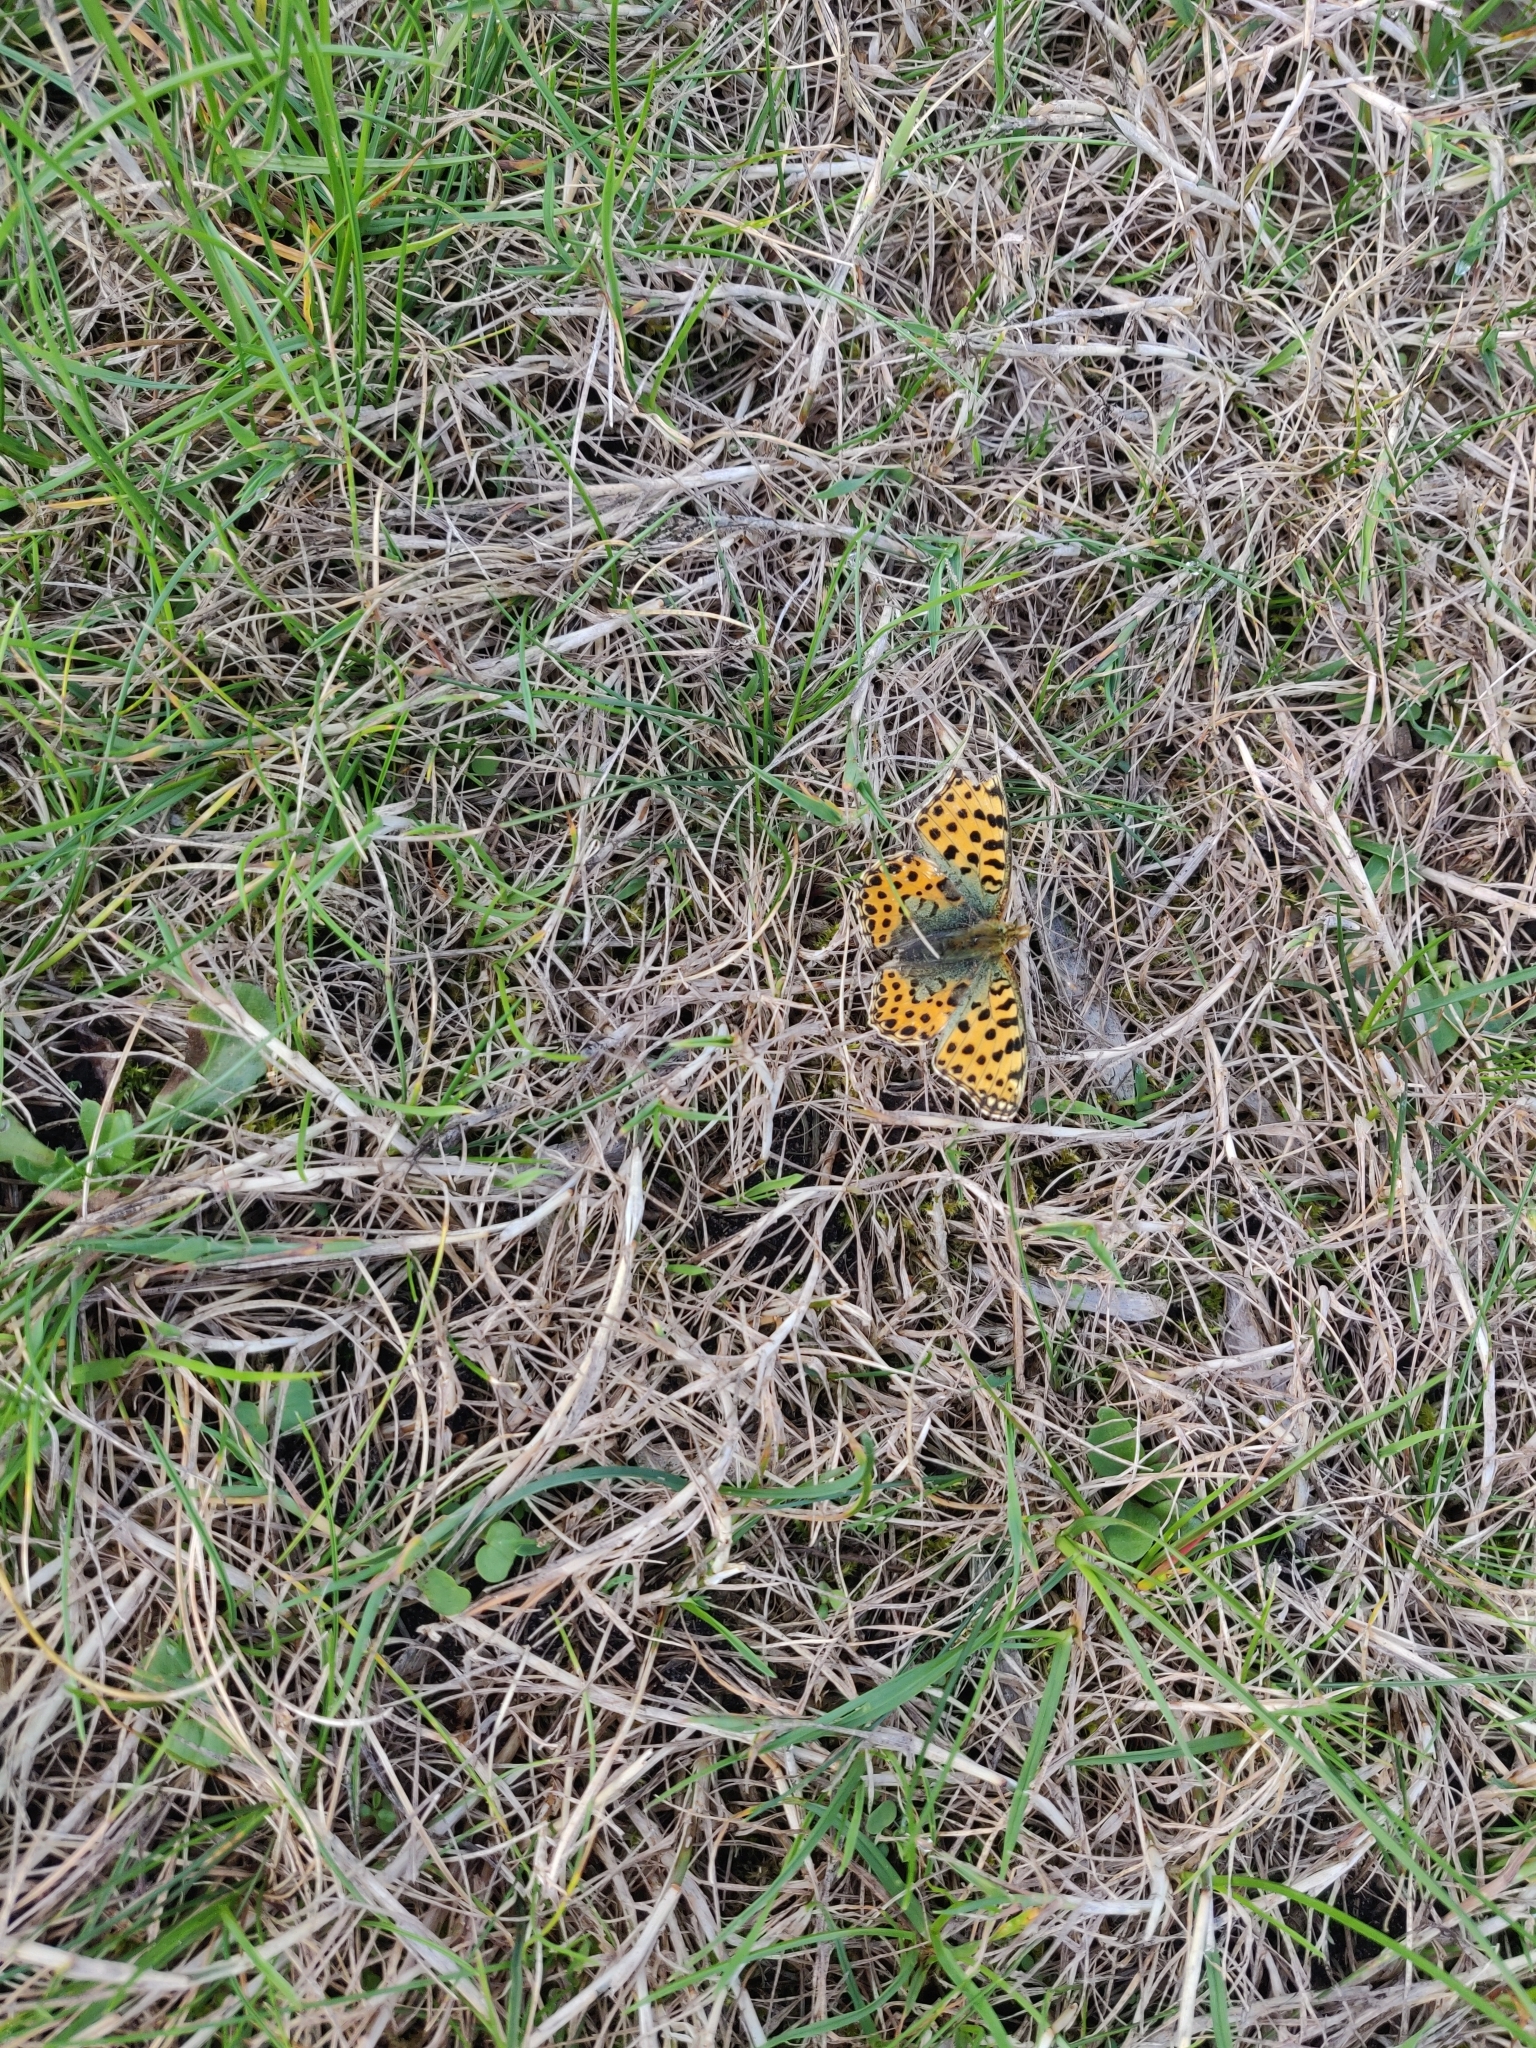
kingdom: Animalia
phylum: Arthropoda
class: Insecta
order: Lepidoptera
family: Nymphalidae
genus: Issoria
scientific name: Issoria lathonia
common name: Queen of spain fritillary
